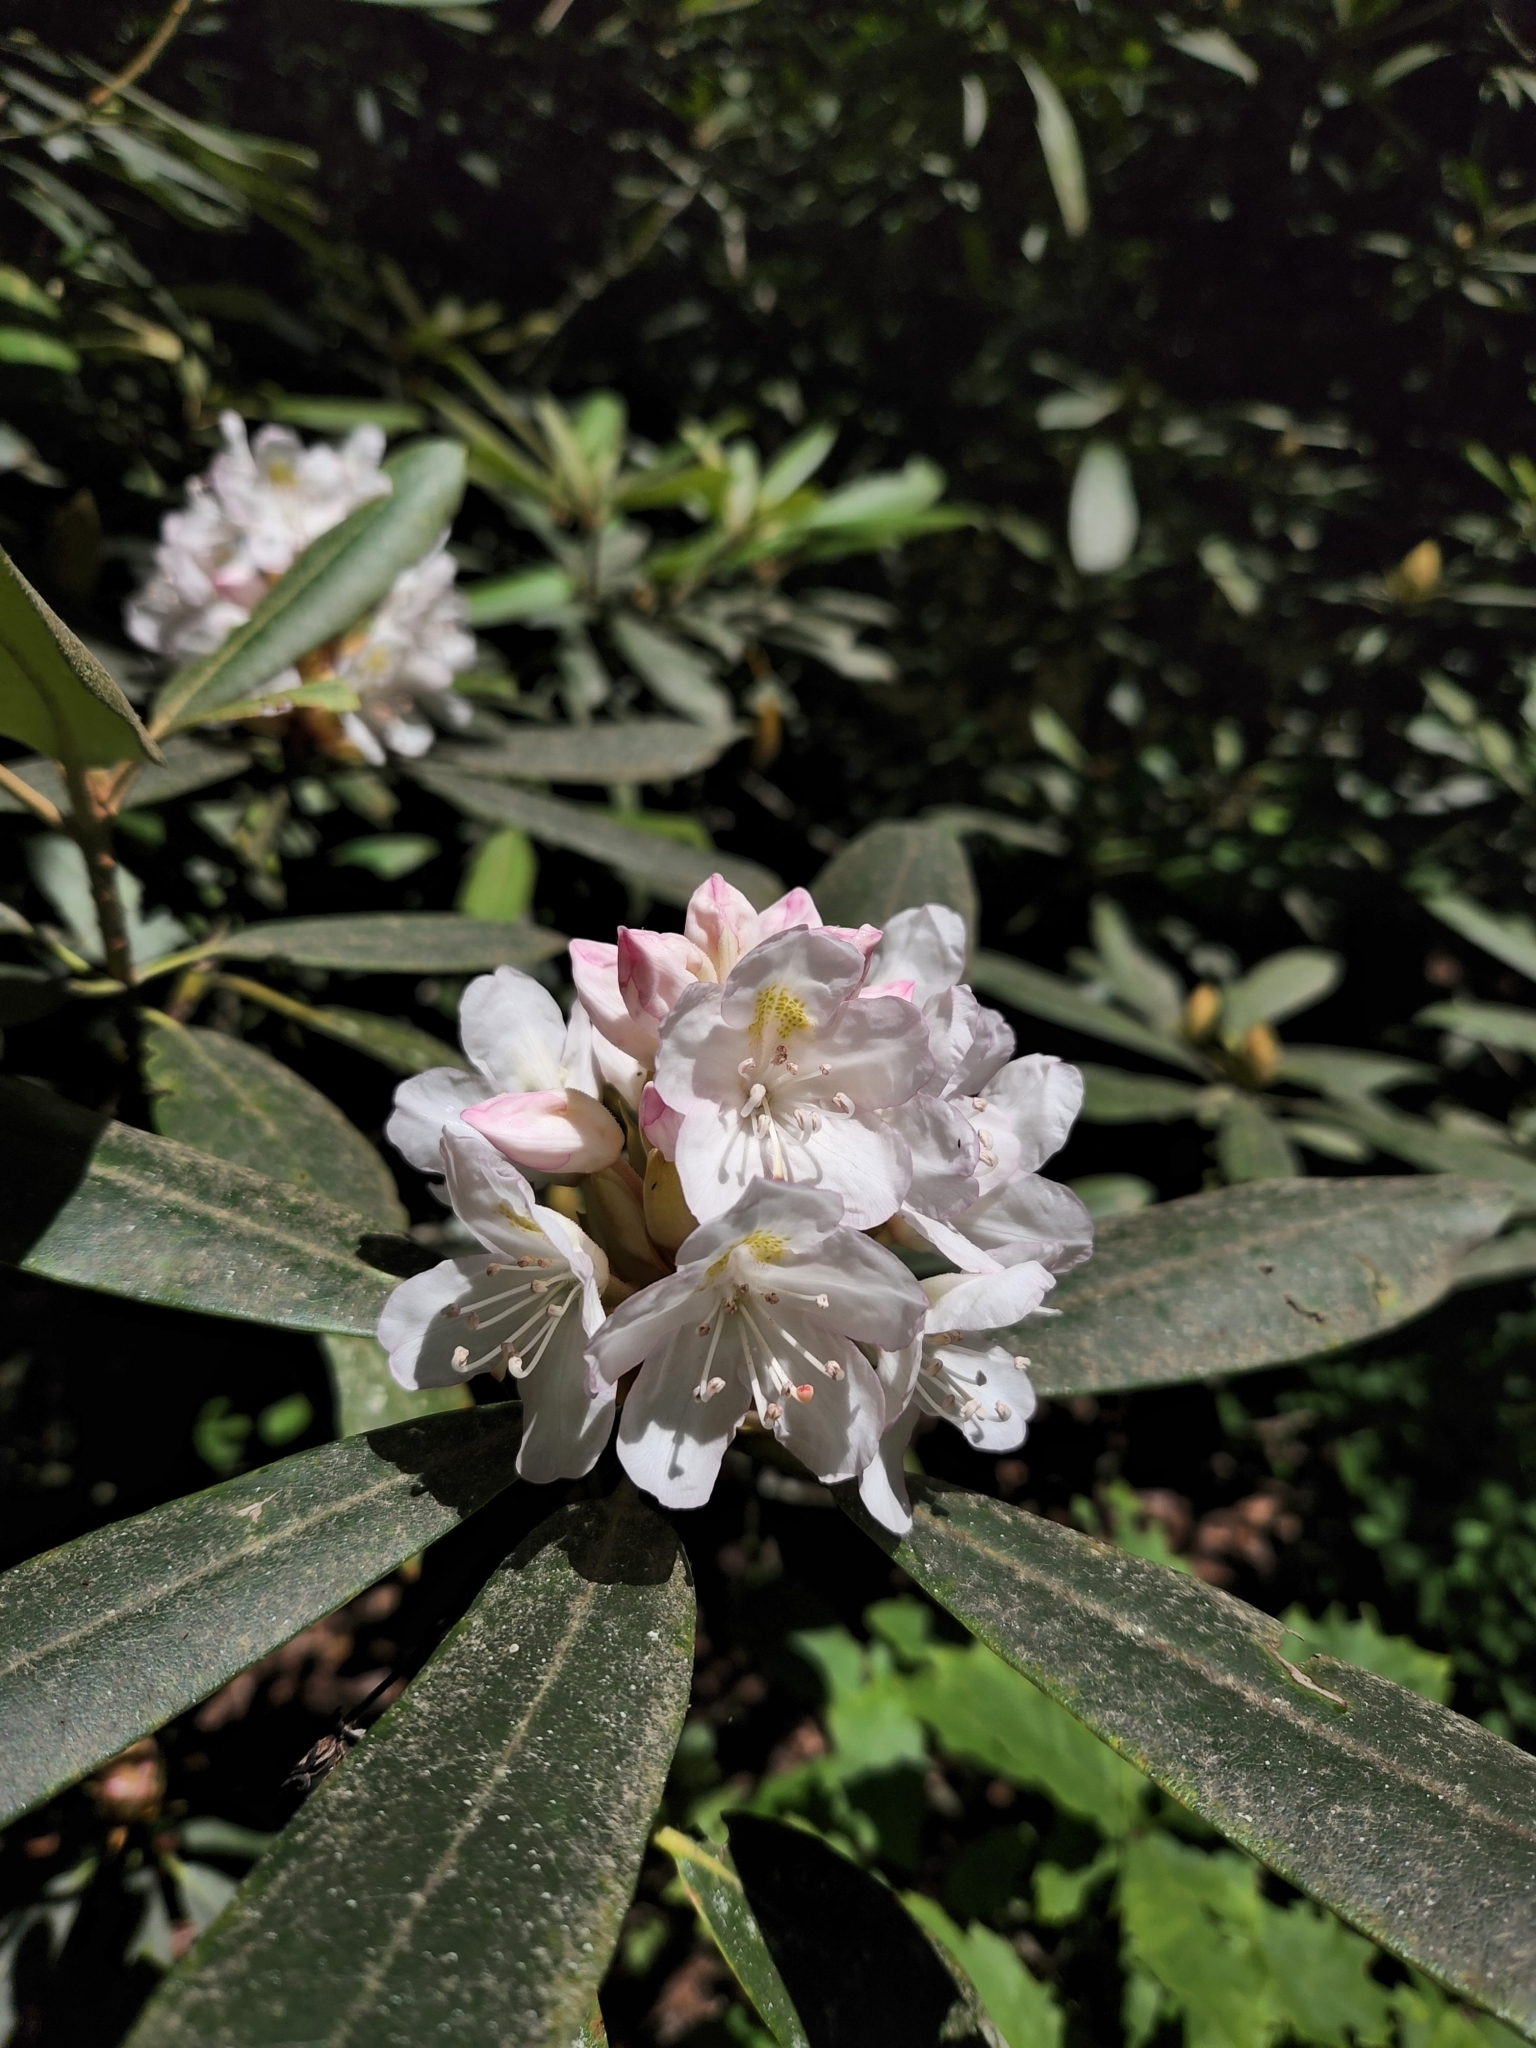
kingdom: Plantae
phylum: Tracheophyta
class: Magnoliopsida
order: Ericales
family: Ericaceae
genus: Rhododendron
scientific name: Rhododendron maximum
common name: Great rhododendron
